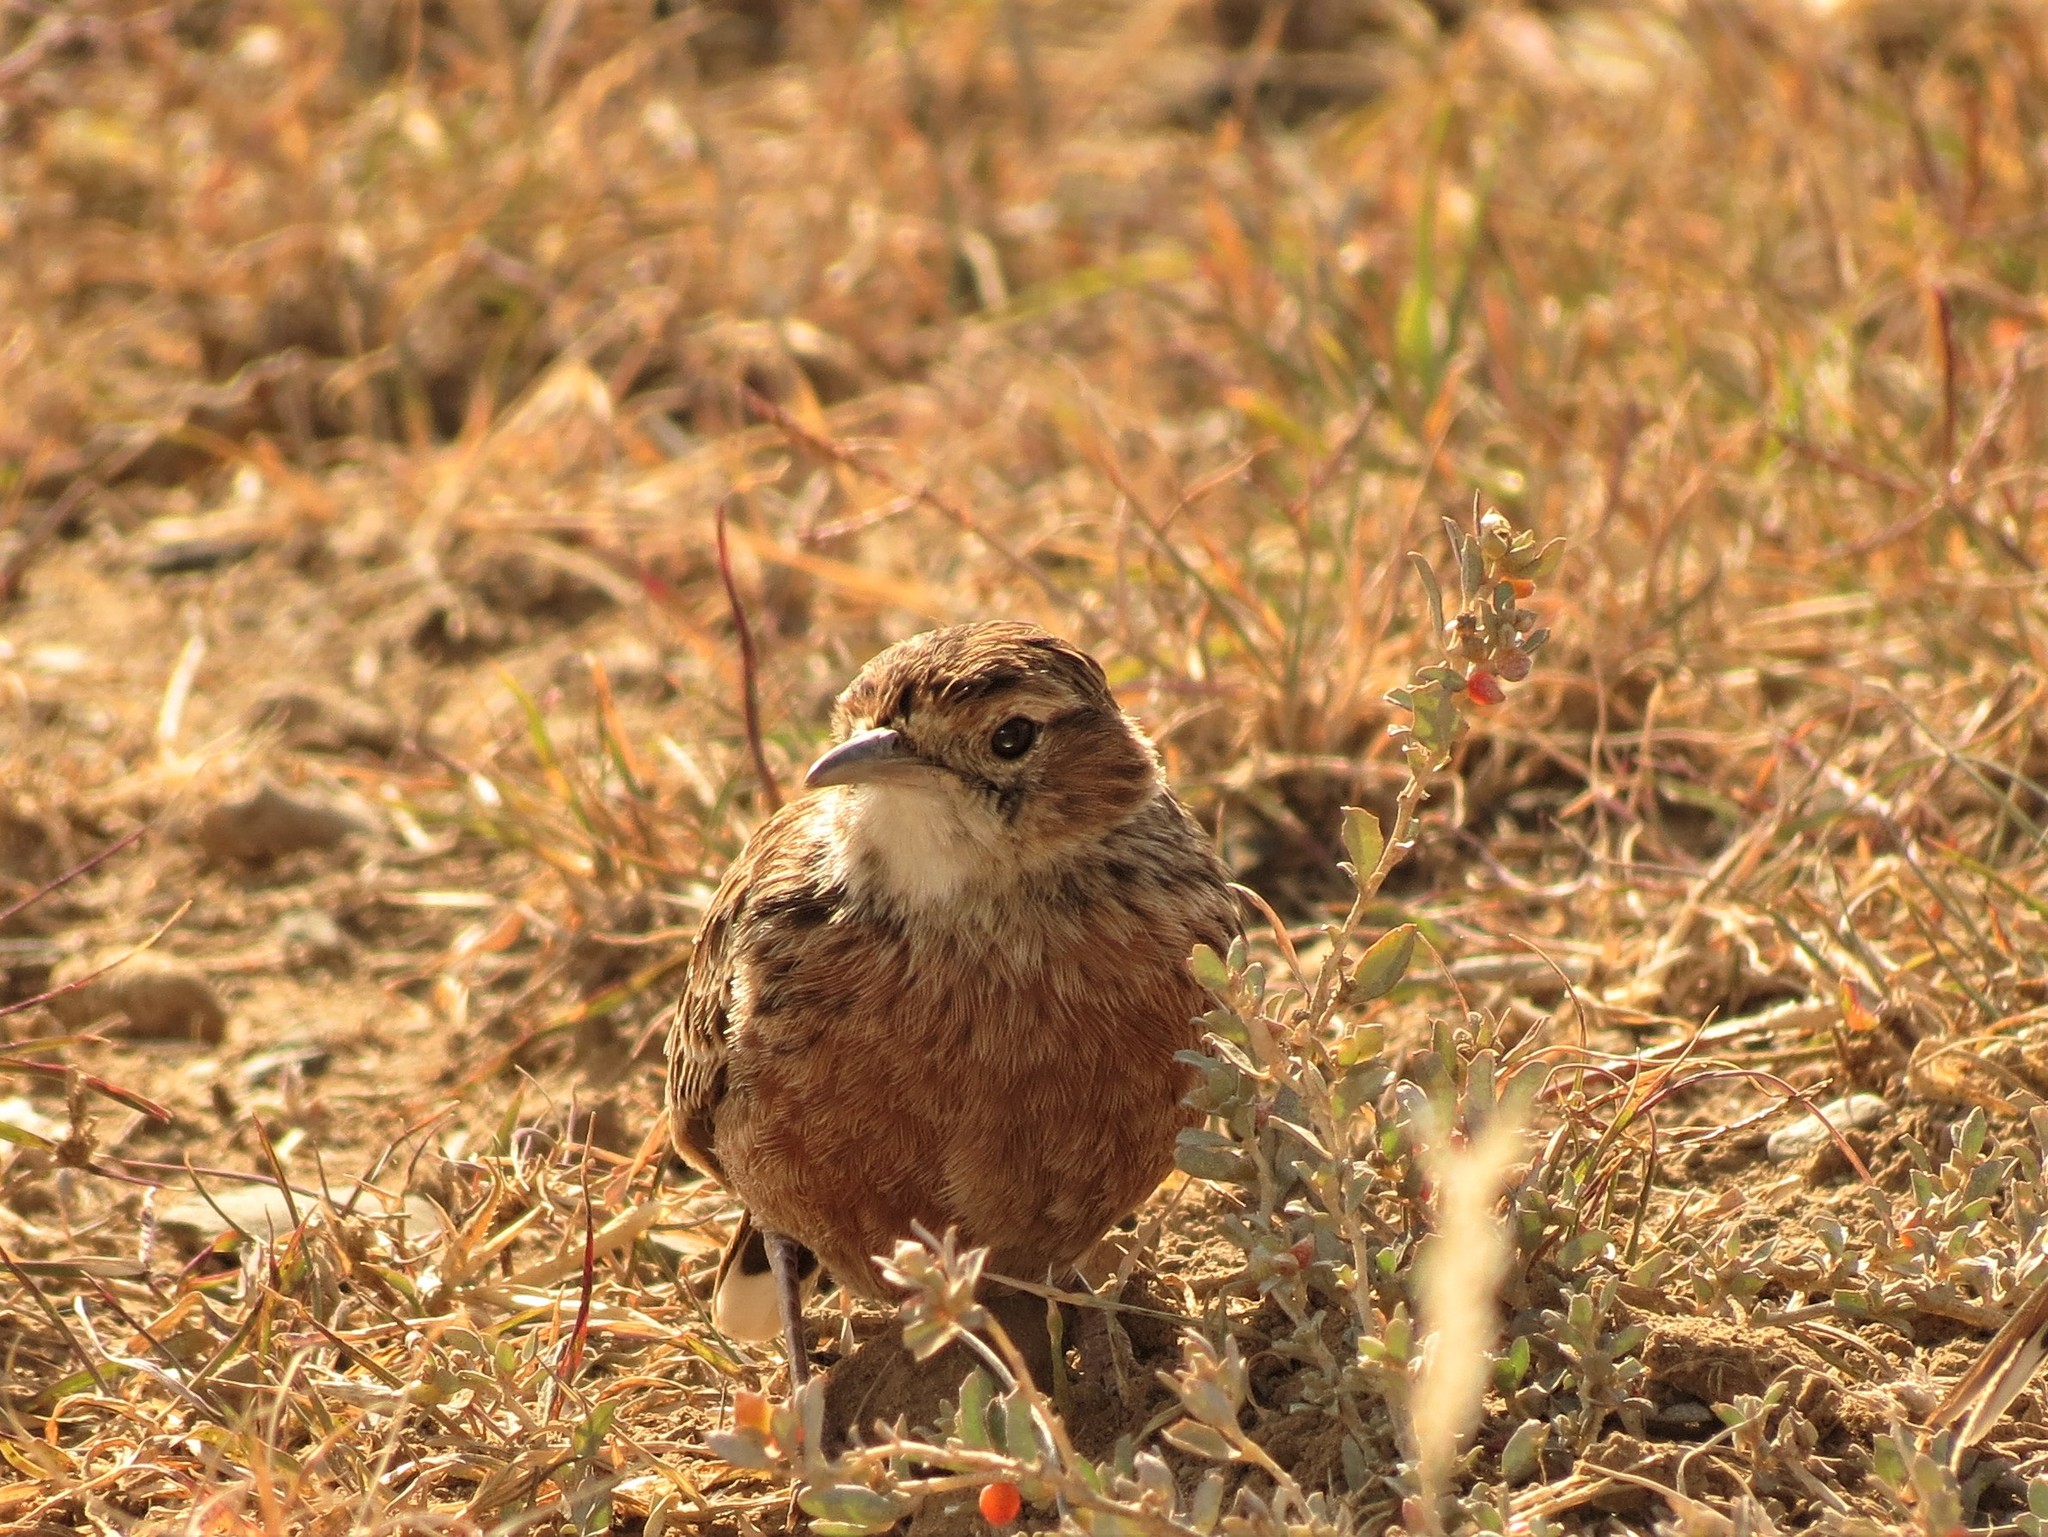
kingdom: Animalia
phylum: Chordata
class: Aves
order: Passeriformes
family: Alaudidae
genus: Chersomanes
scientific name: Chersomanes albofasciata
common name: Spike-heeled lark
